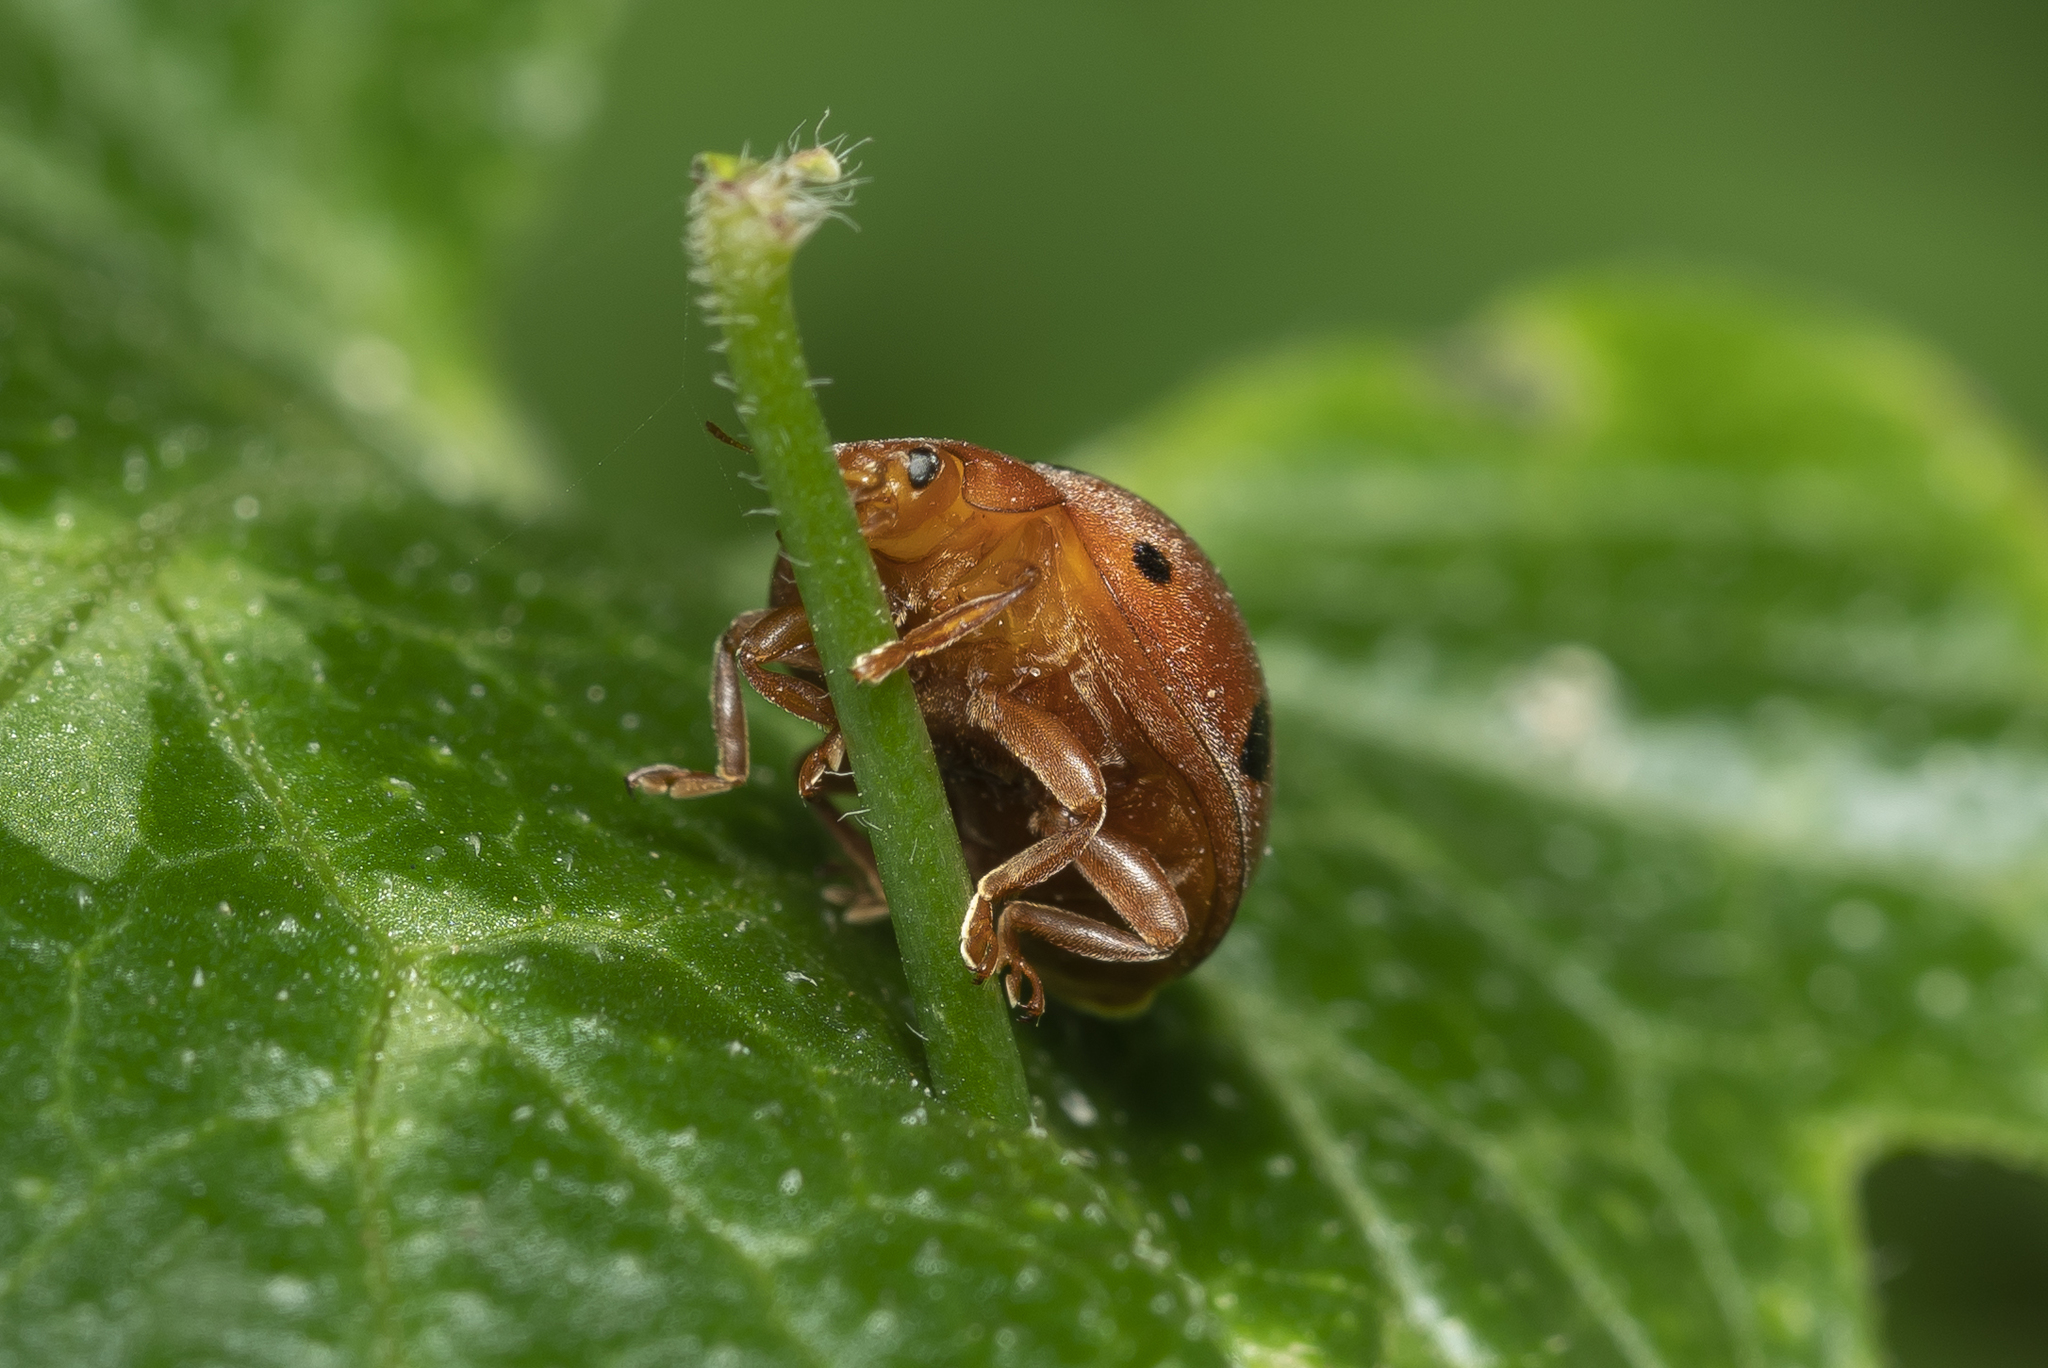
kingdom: Animalia
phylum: Arthropoda
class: Insecta
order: Coleoptera
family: Coccinellidae
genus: Henosepilachna
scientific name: Henosepilachna argus
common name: Bryony ladybird
